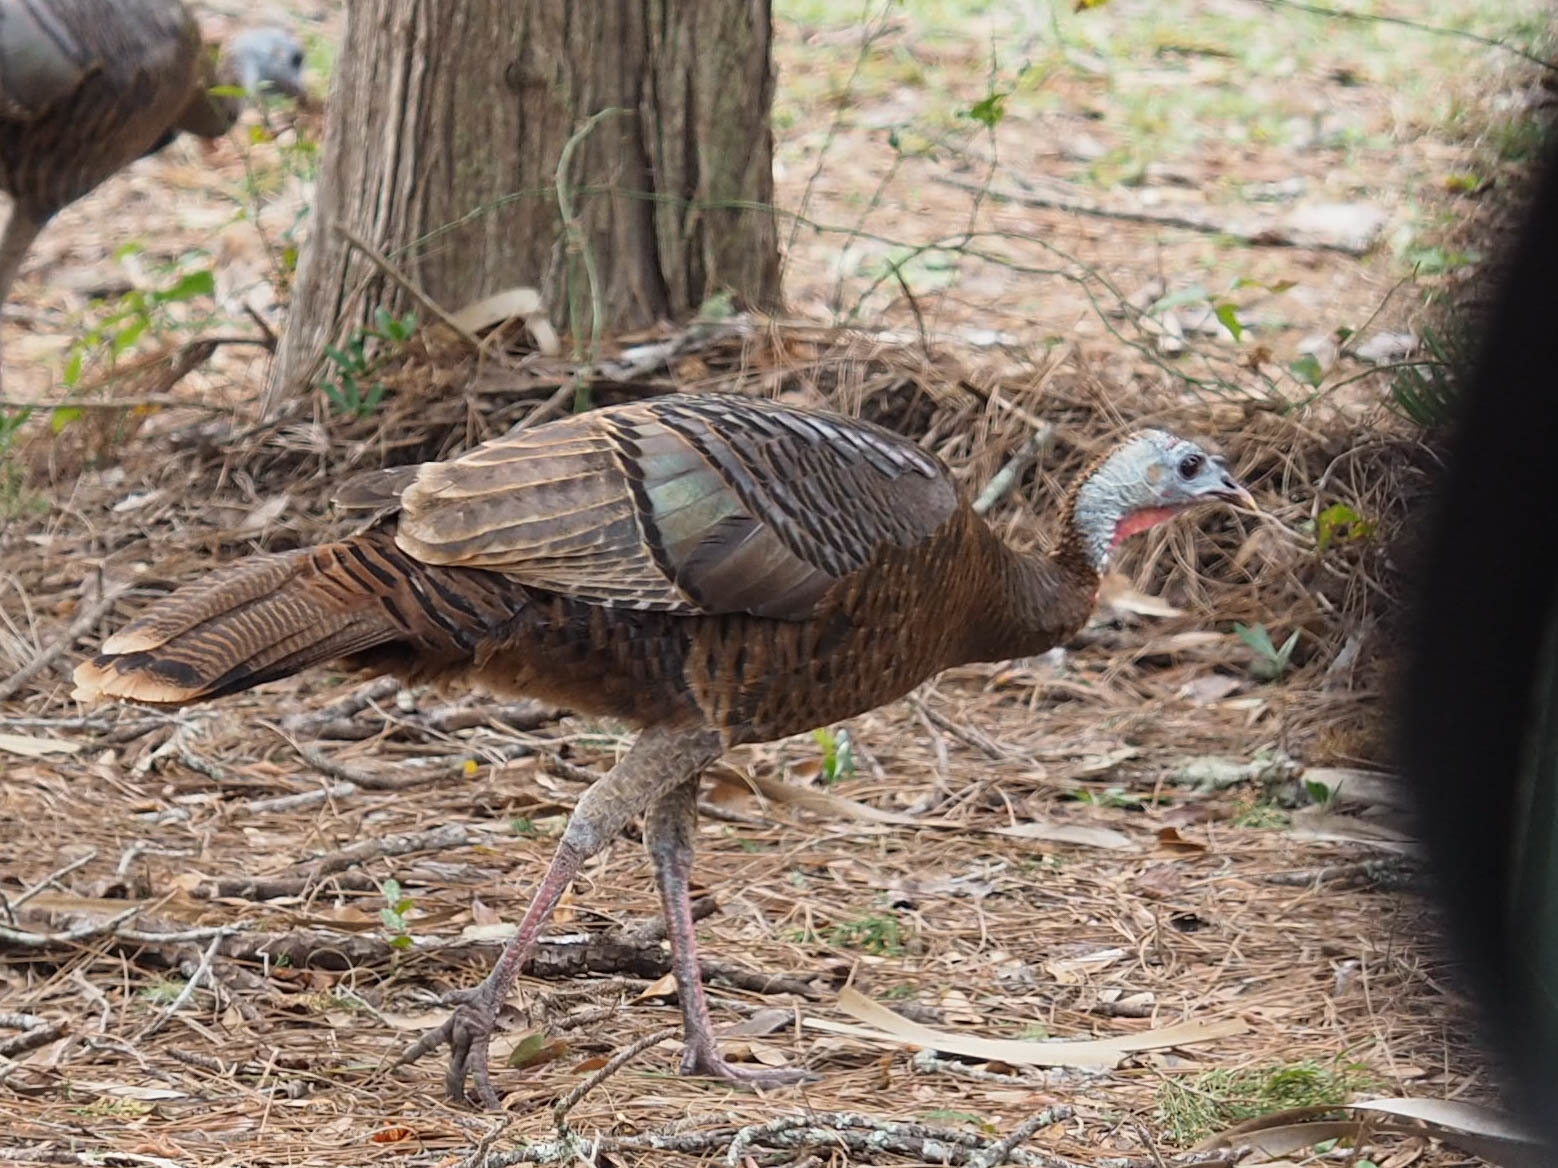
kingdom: Animalia
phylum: Chordata
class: Aves
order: Galliformes
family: Phasianidae
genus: Meleagris
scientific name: Meleagris gallopavo
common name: Wild turkey
